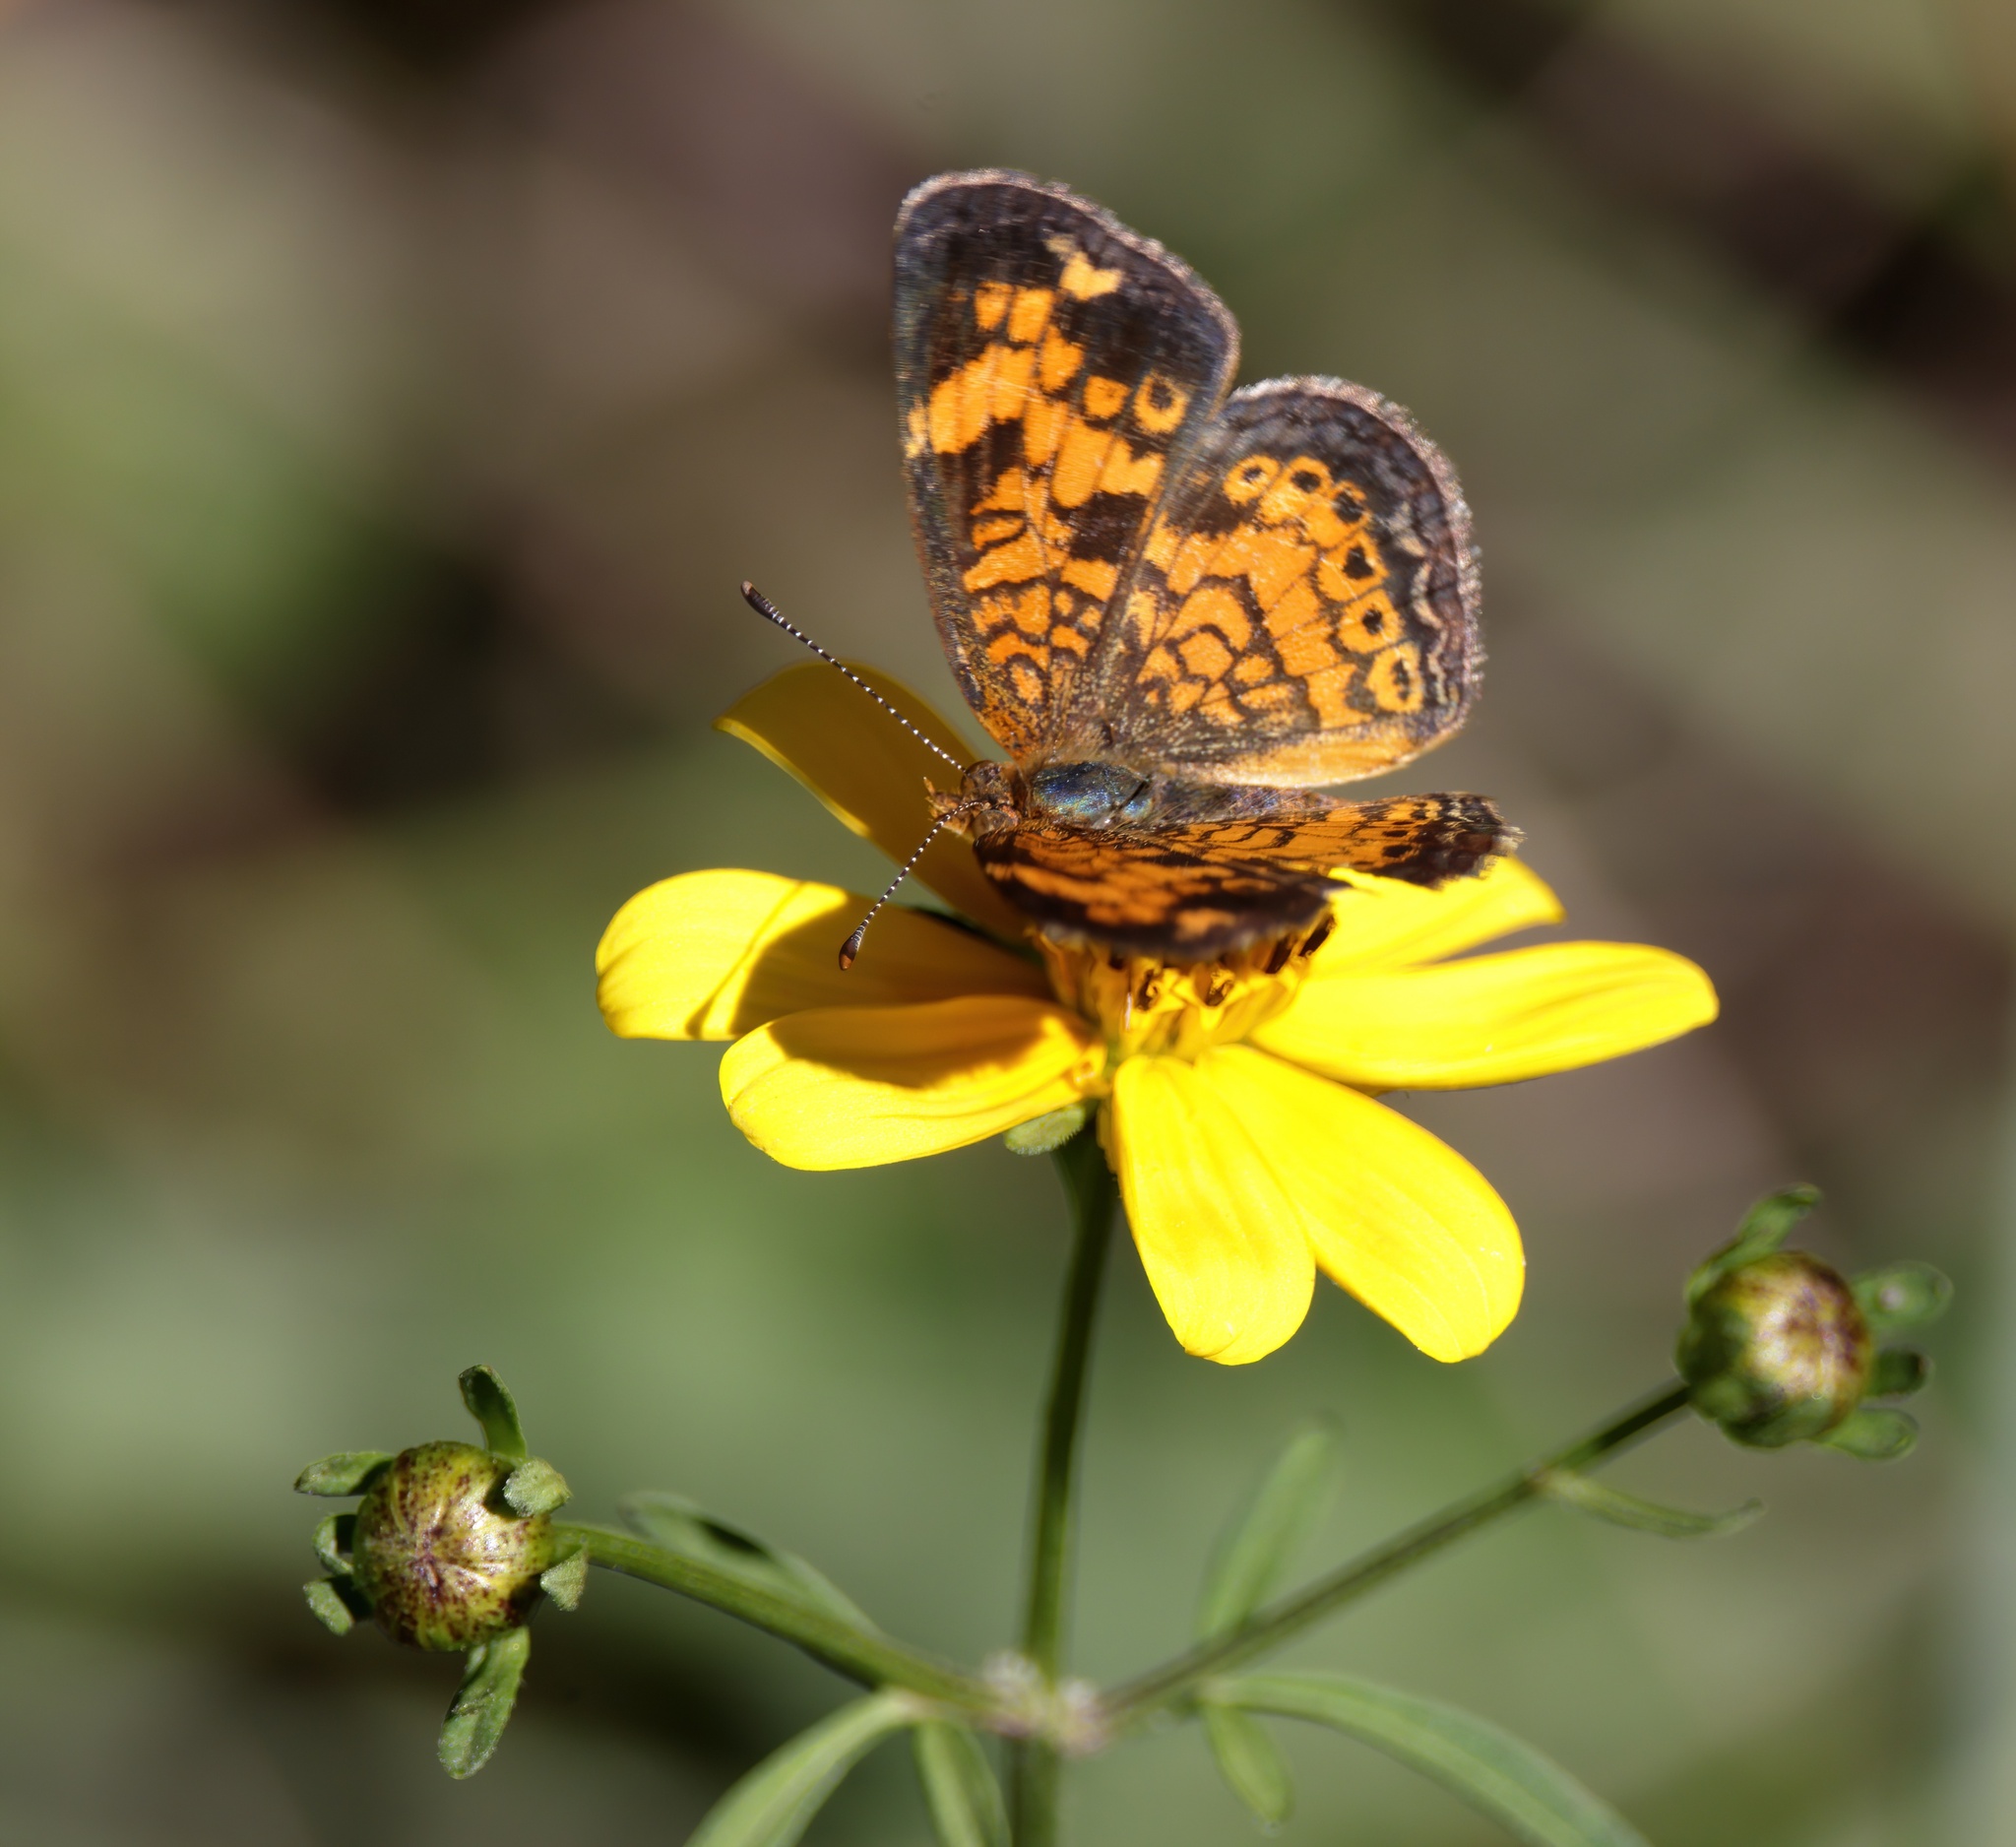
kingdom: Animalia
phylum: Arthropoda
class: Insecta
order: Lepidoptera
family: Nymphalidae
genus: Phyciodes
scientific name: Phyciodes tharos
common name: Pearl crescent
